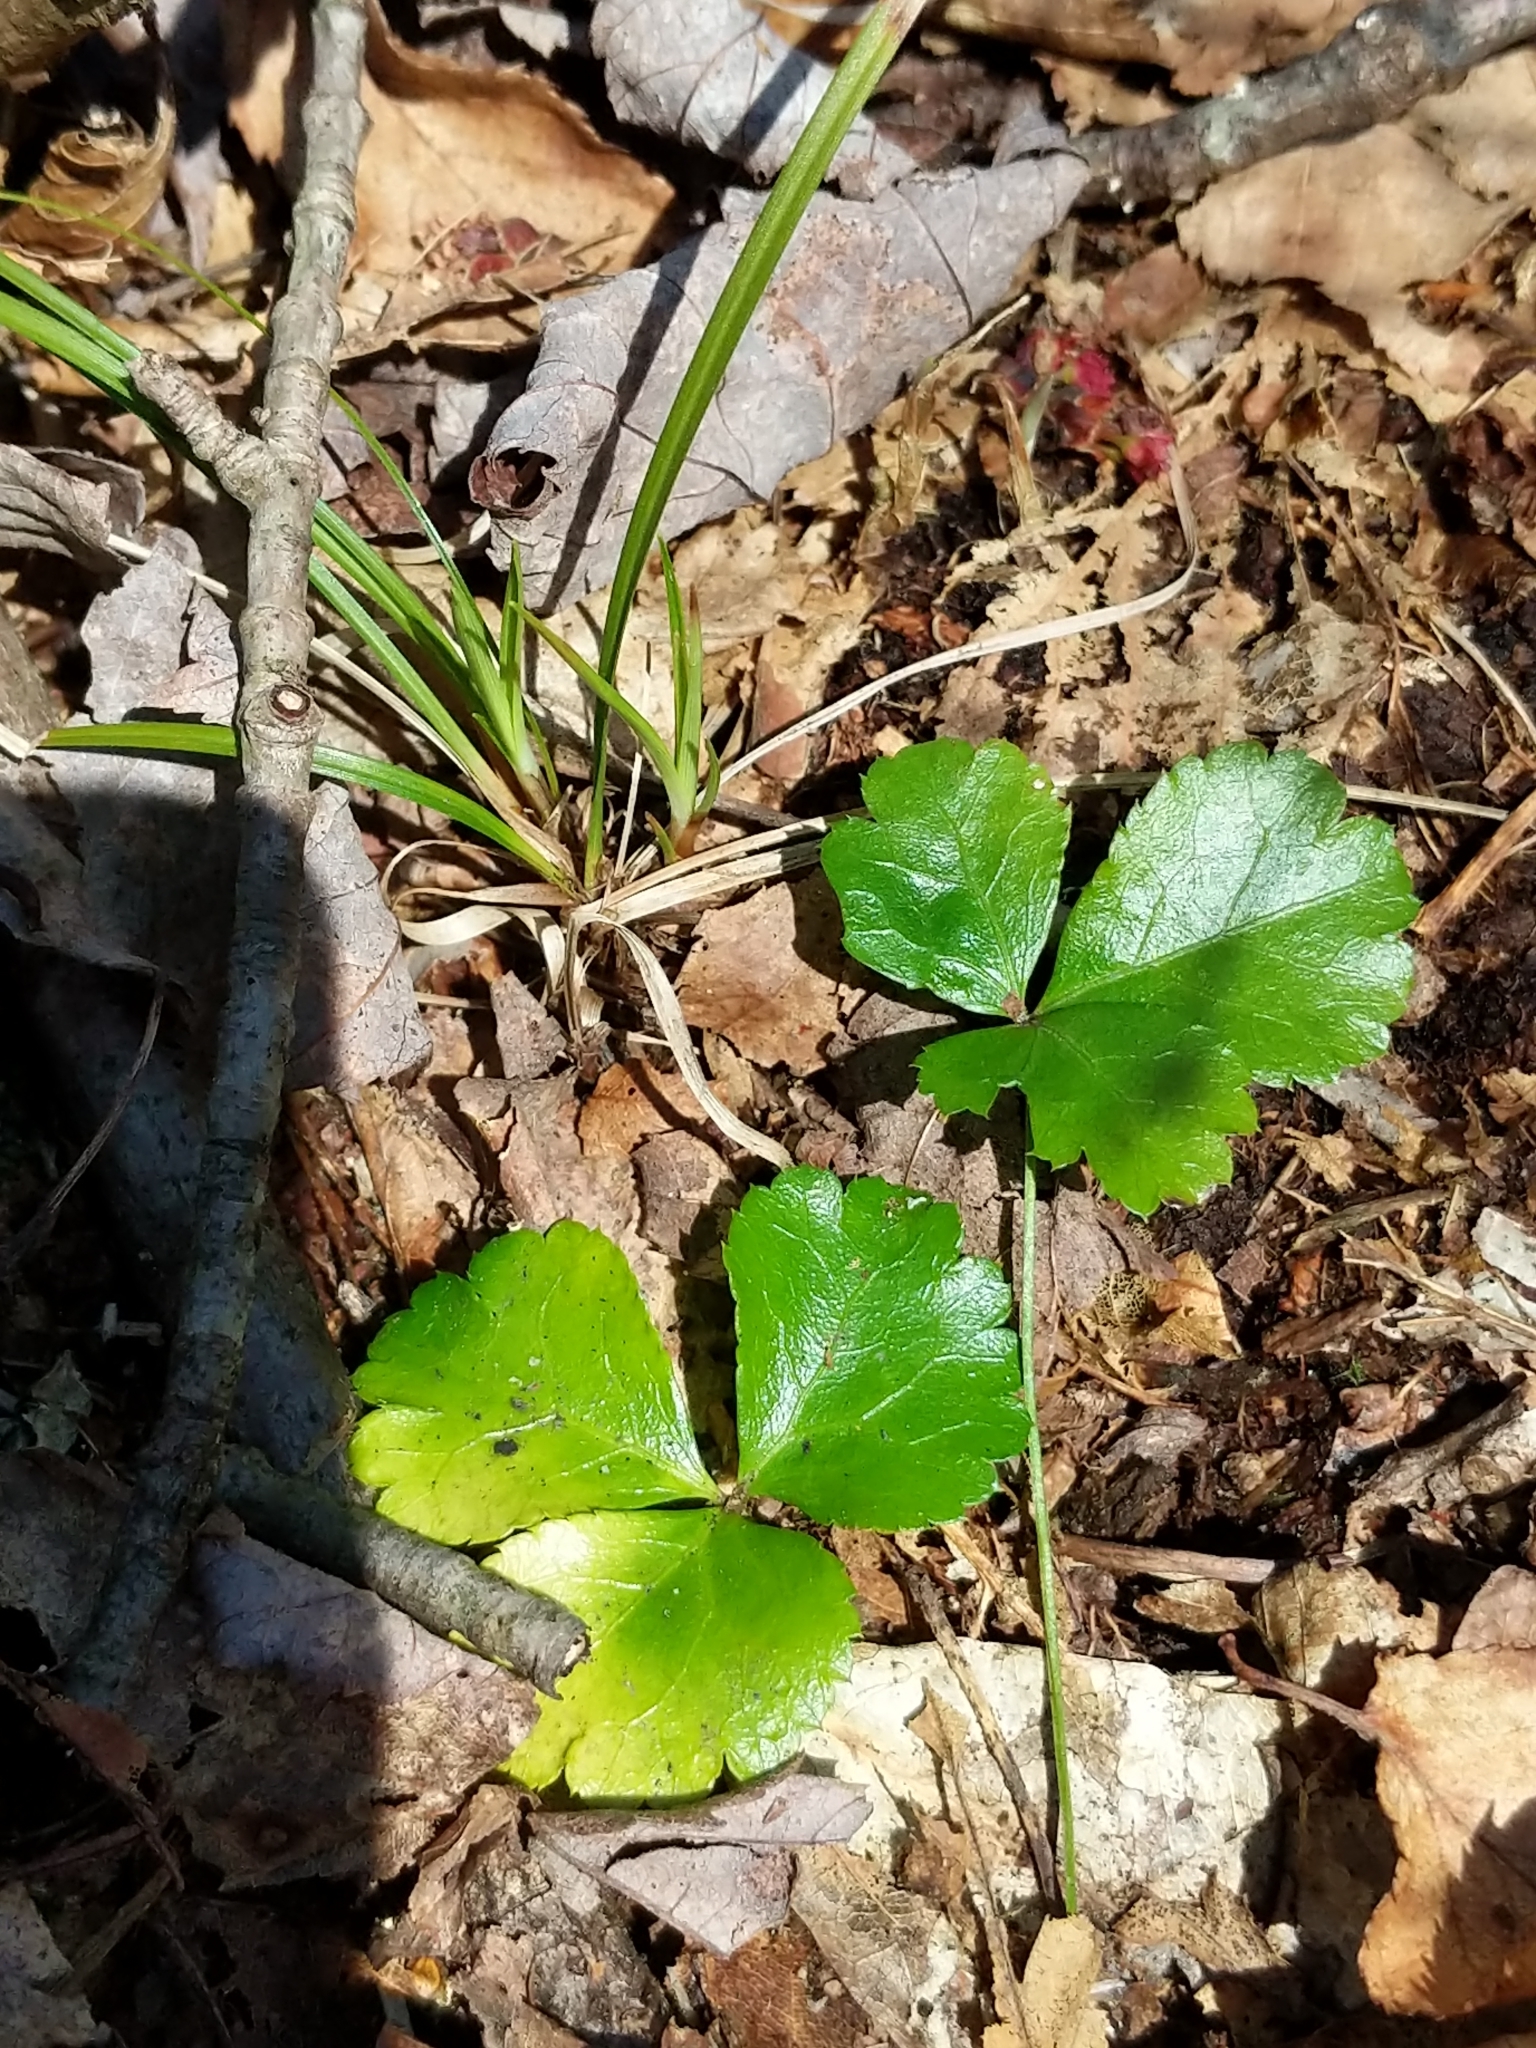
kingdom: Plantae
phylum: Tracheophyta
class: Magnoliopsida
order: Ranunculales
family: Ranunculaceae
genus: Coptis
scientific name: Coptis trifolia
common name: Canker-root
